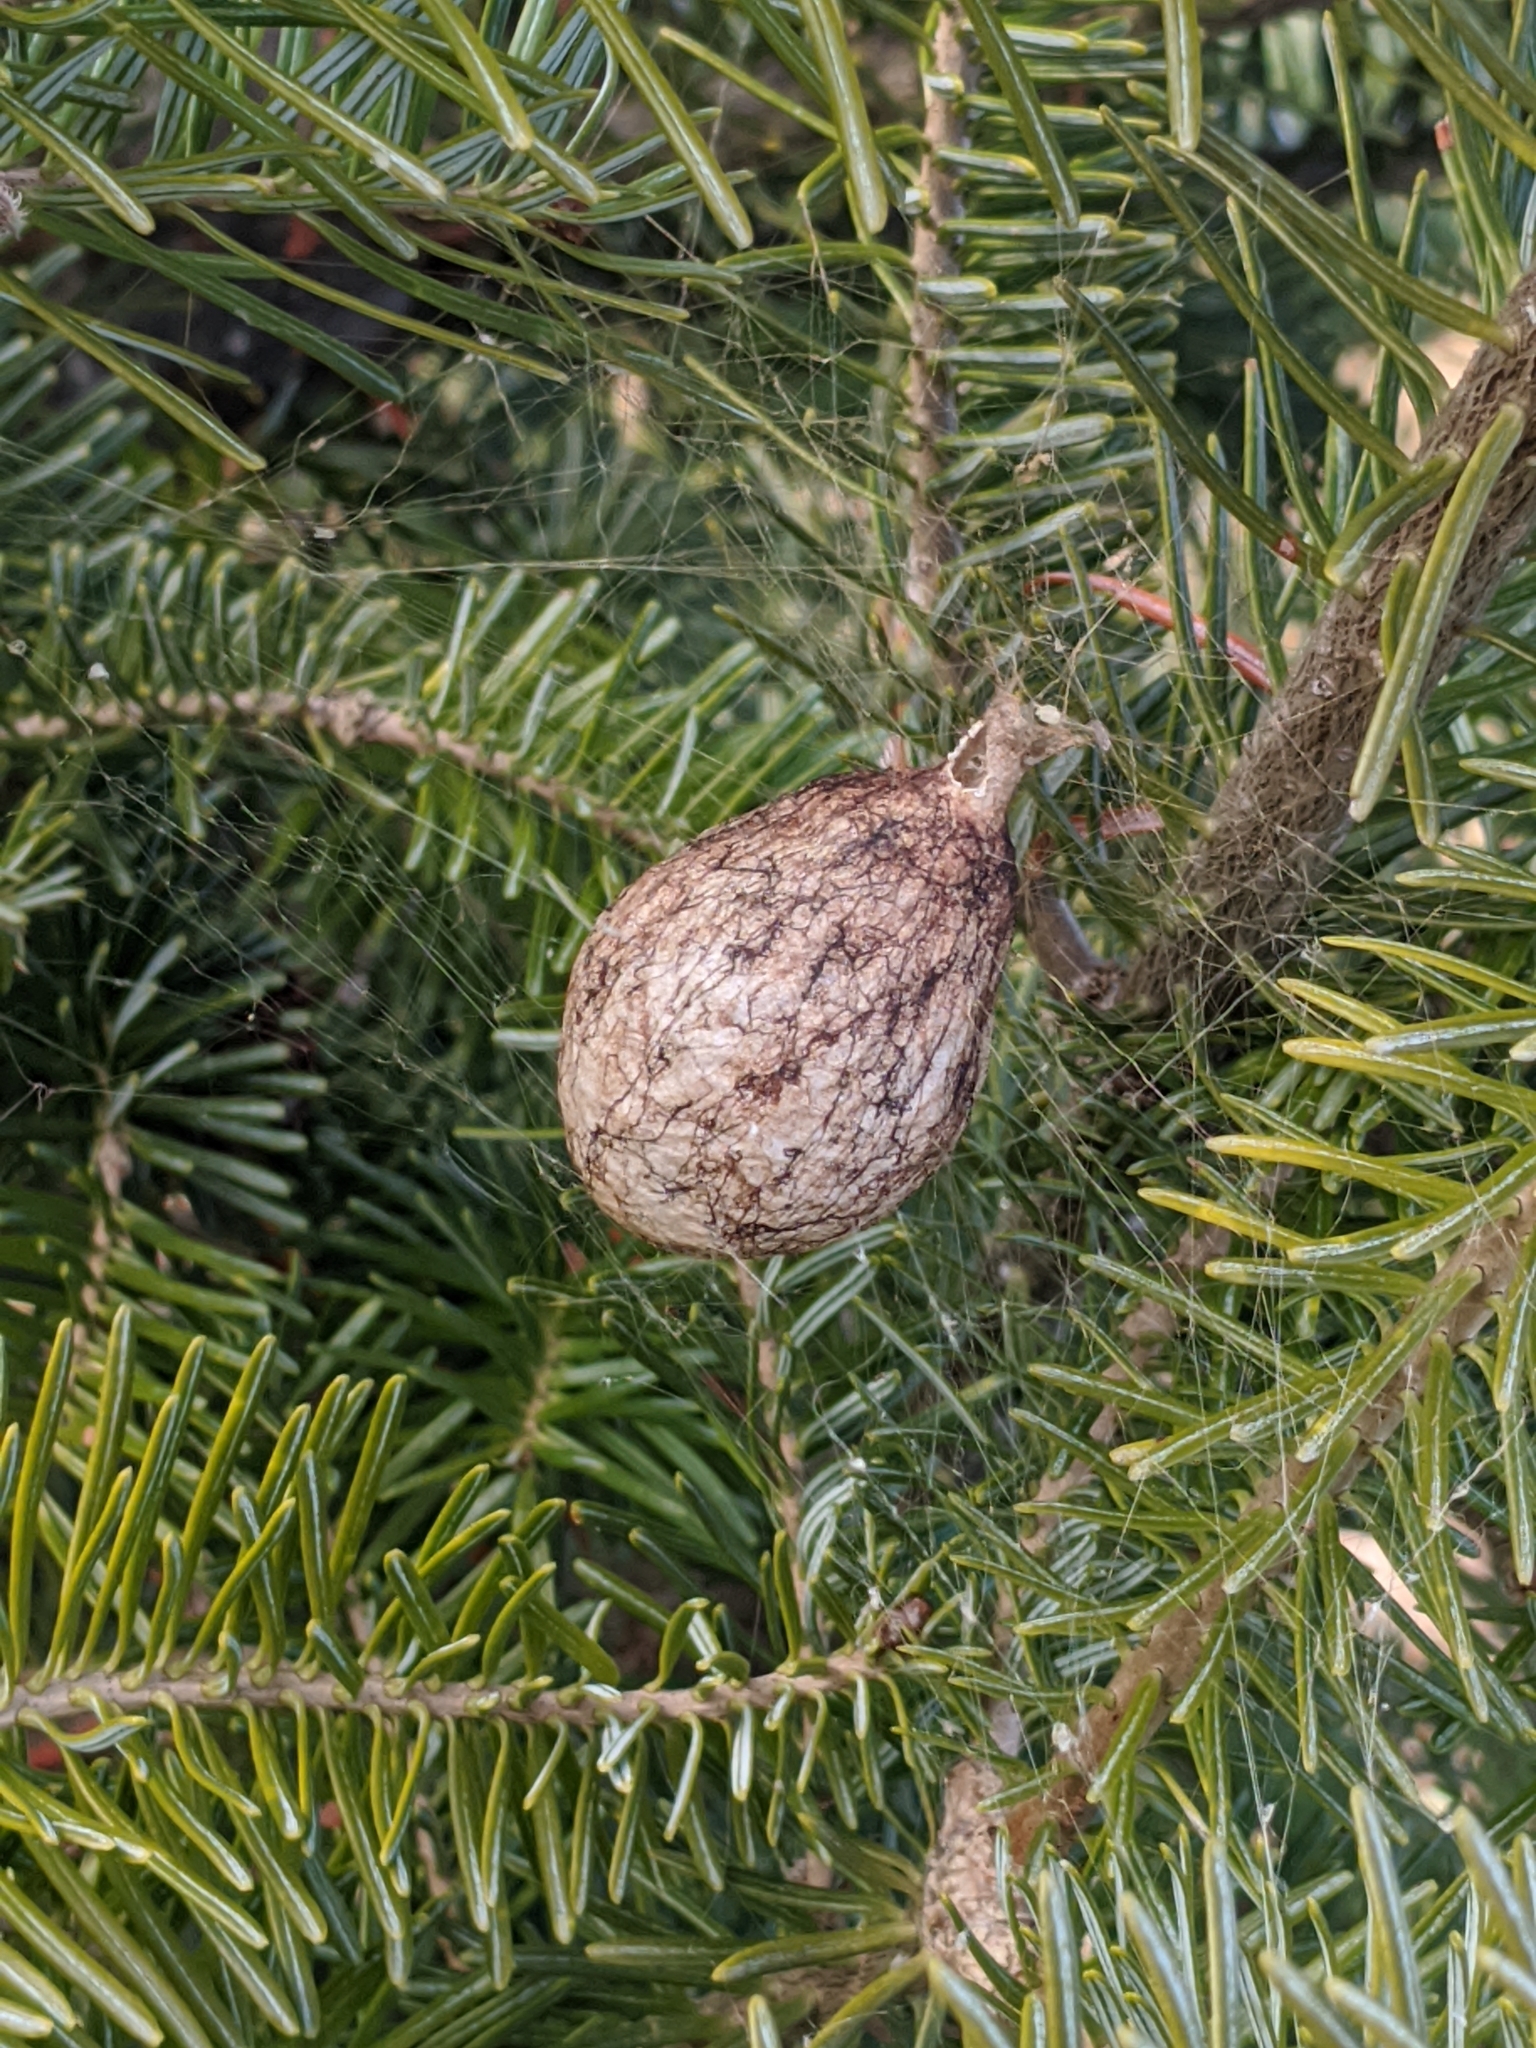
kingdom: Animalia
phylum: Arthropoda
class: Arachnida
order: Araneae
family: Araneidae
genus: Argiope
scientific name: Argiope aurantia
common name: Orb weavers
